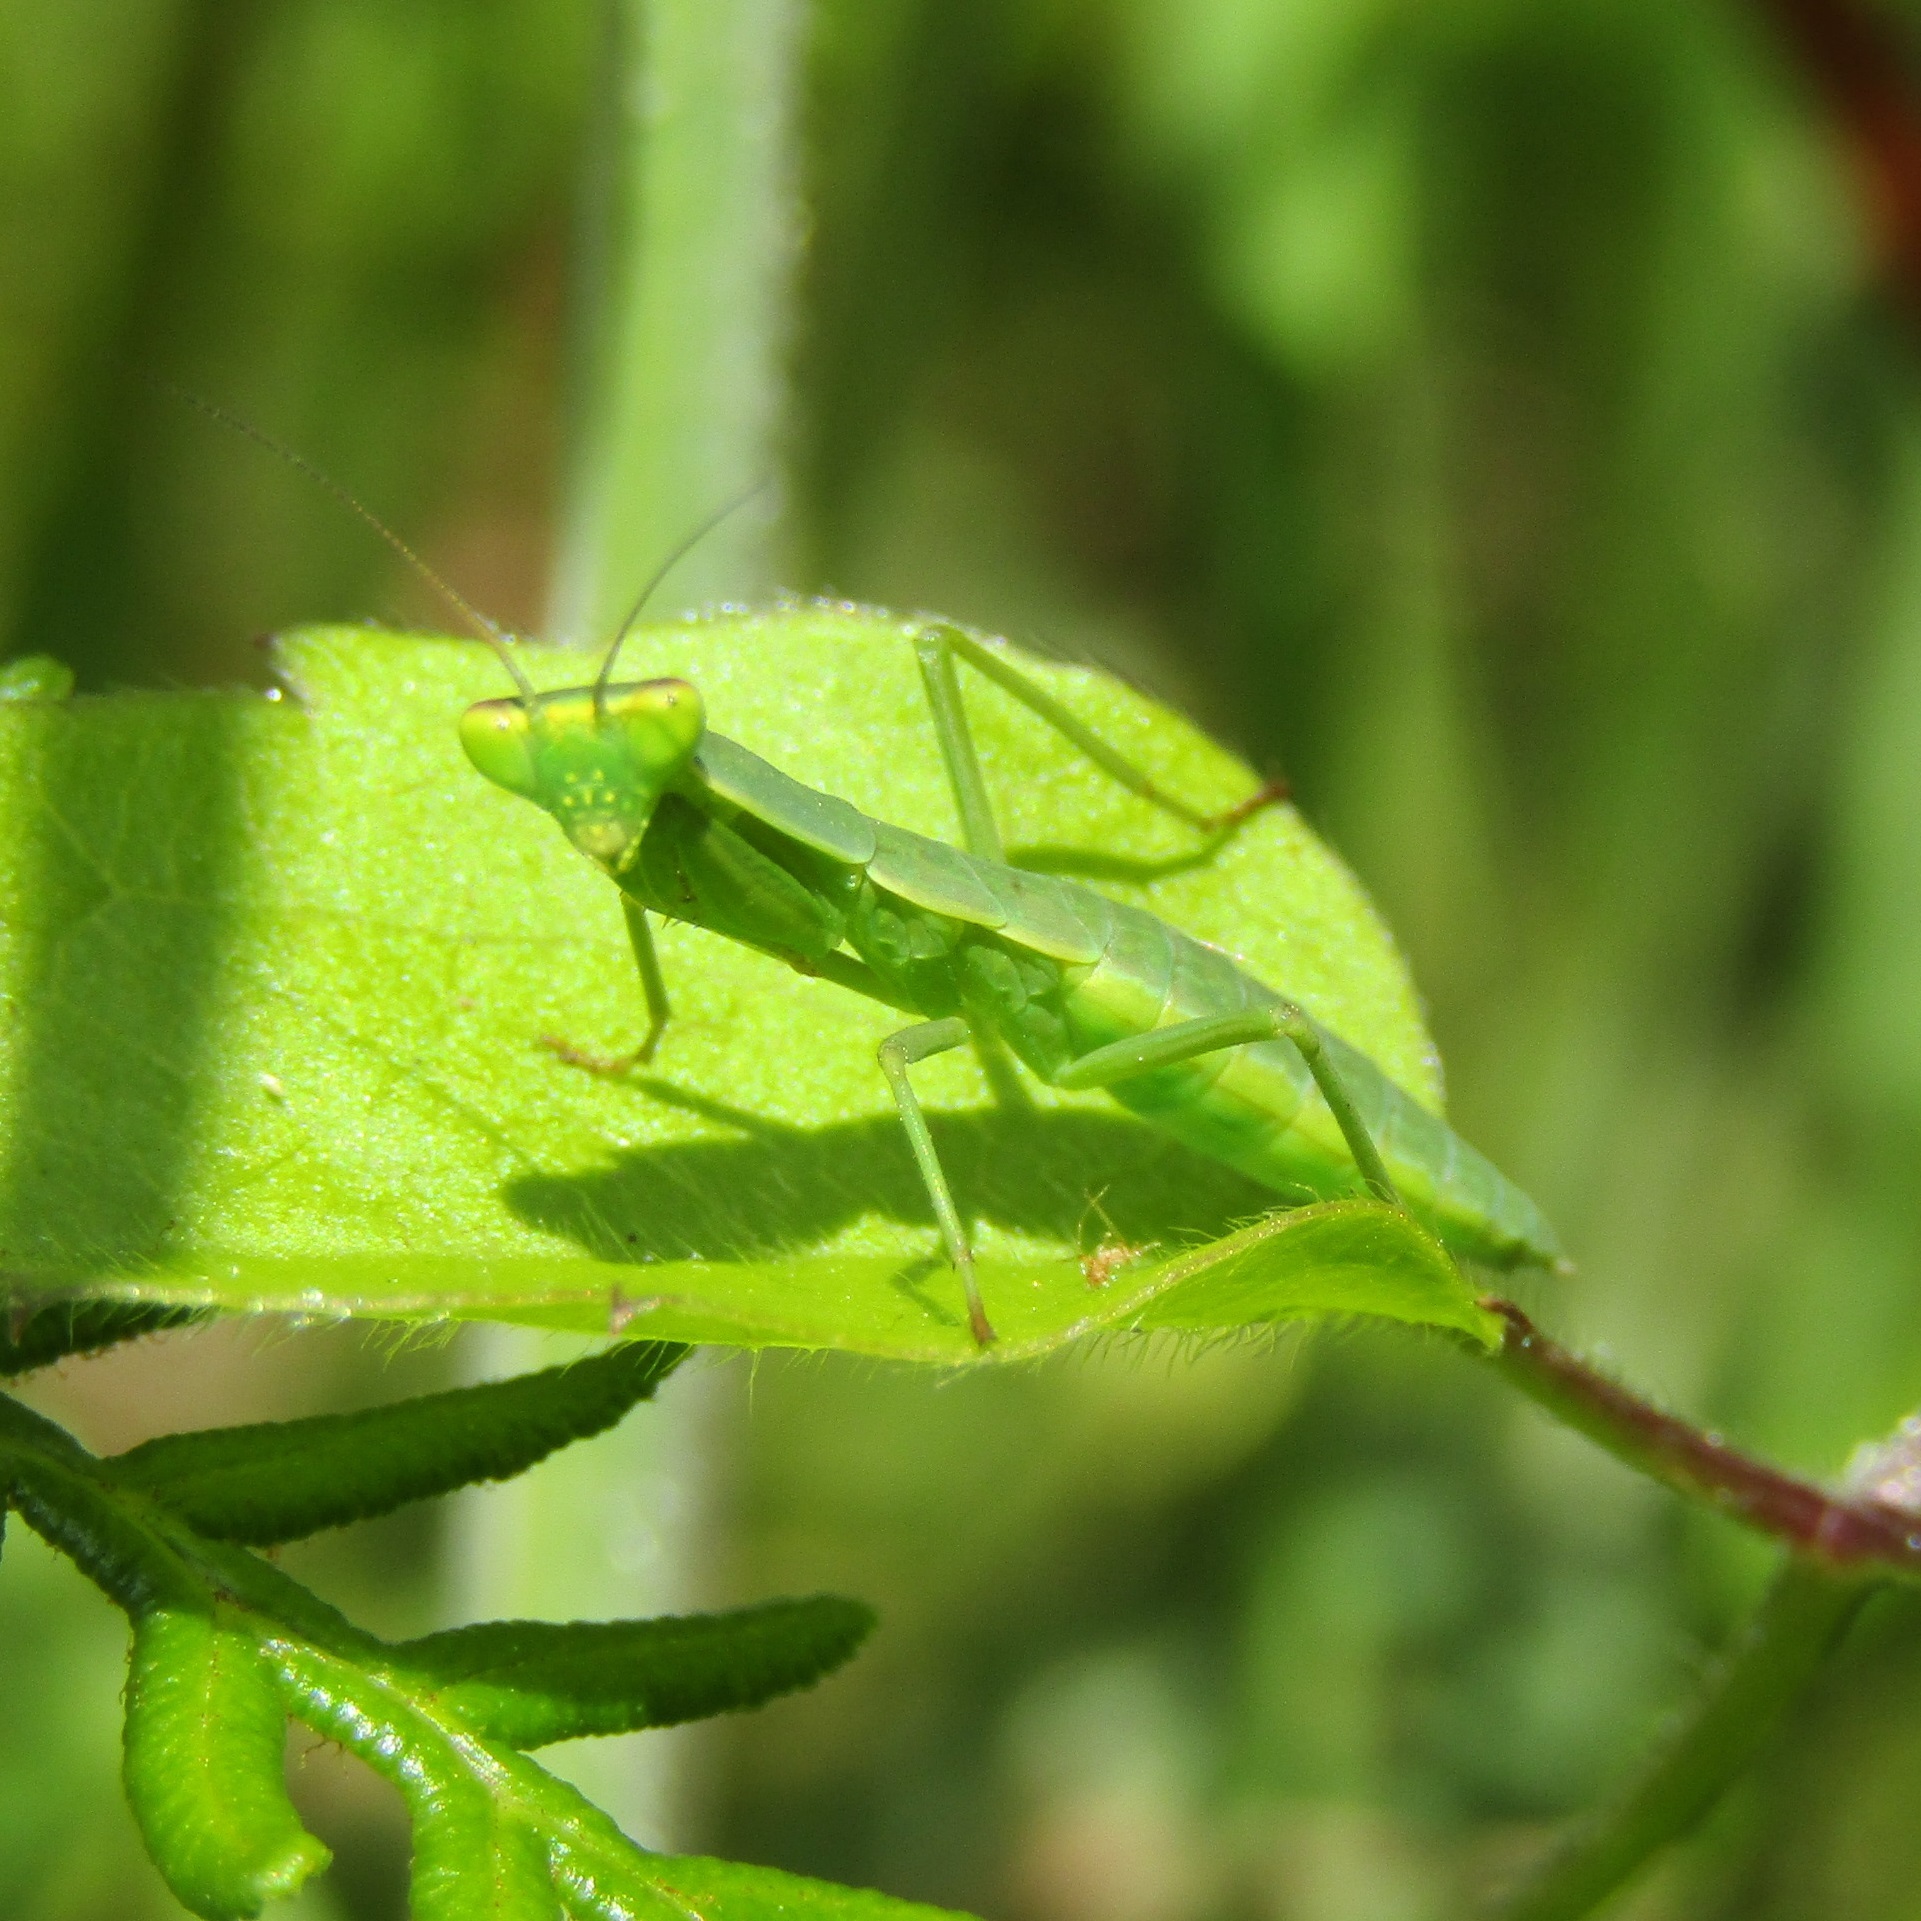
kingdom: Animalia
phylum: Arthropoda
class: Insecta
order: Mantodea
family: Mantidae
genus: Orthodera
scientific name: Orthodera novaezealandiae
